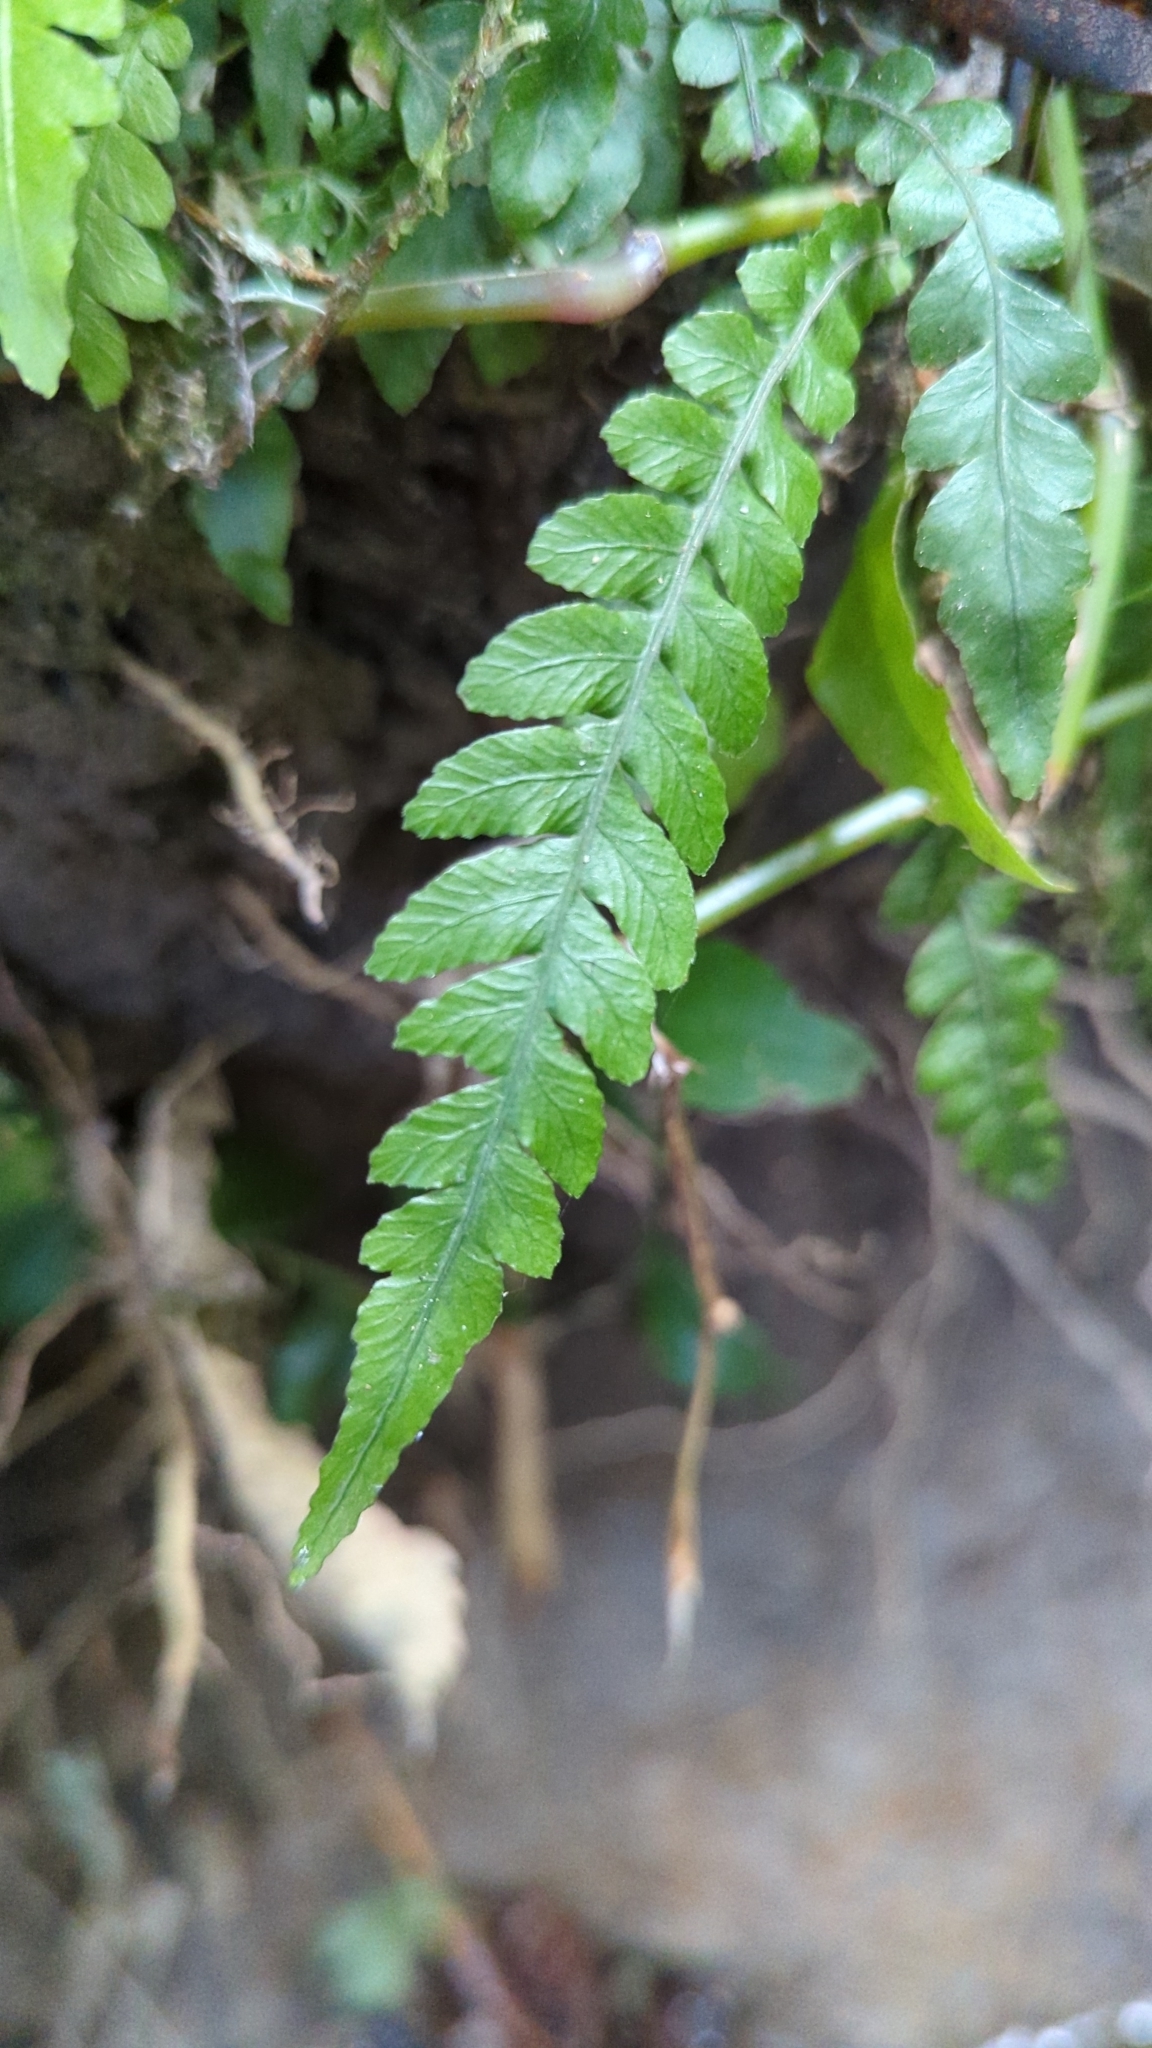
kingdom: Plantae
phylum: Tracheophyta
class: Polypodiopsida
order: Polypodiales
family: Blechnaceae
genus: Austroblechnum
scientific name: Austroblechnum lanceolatum
